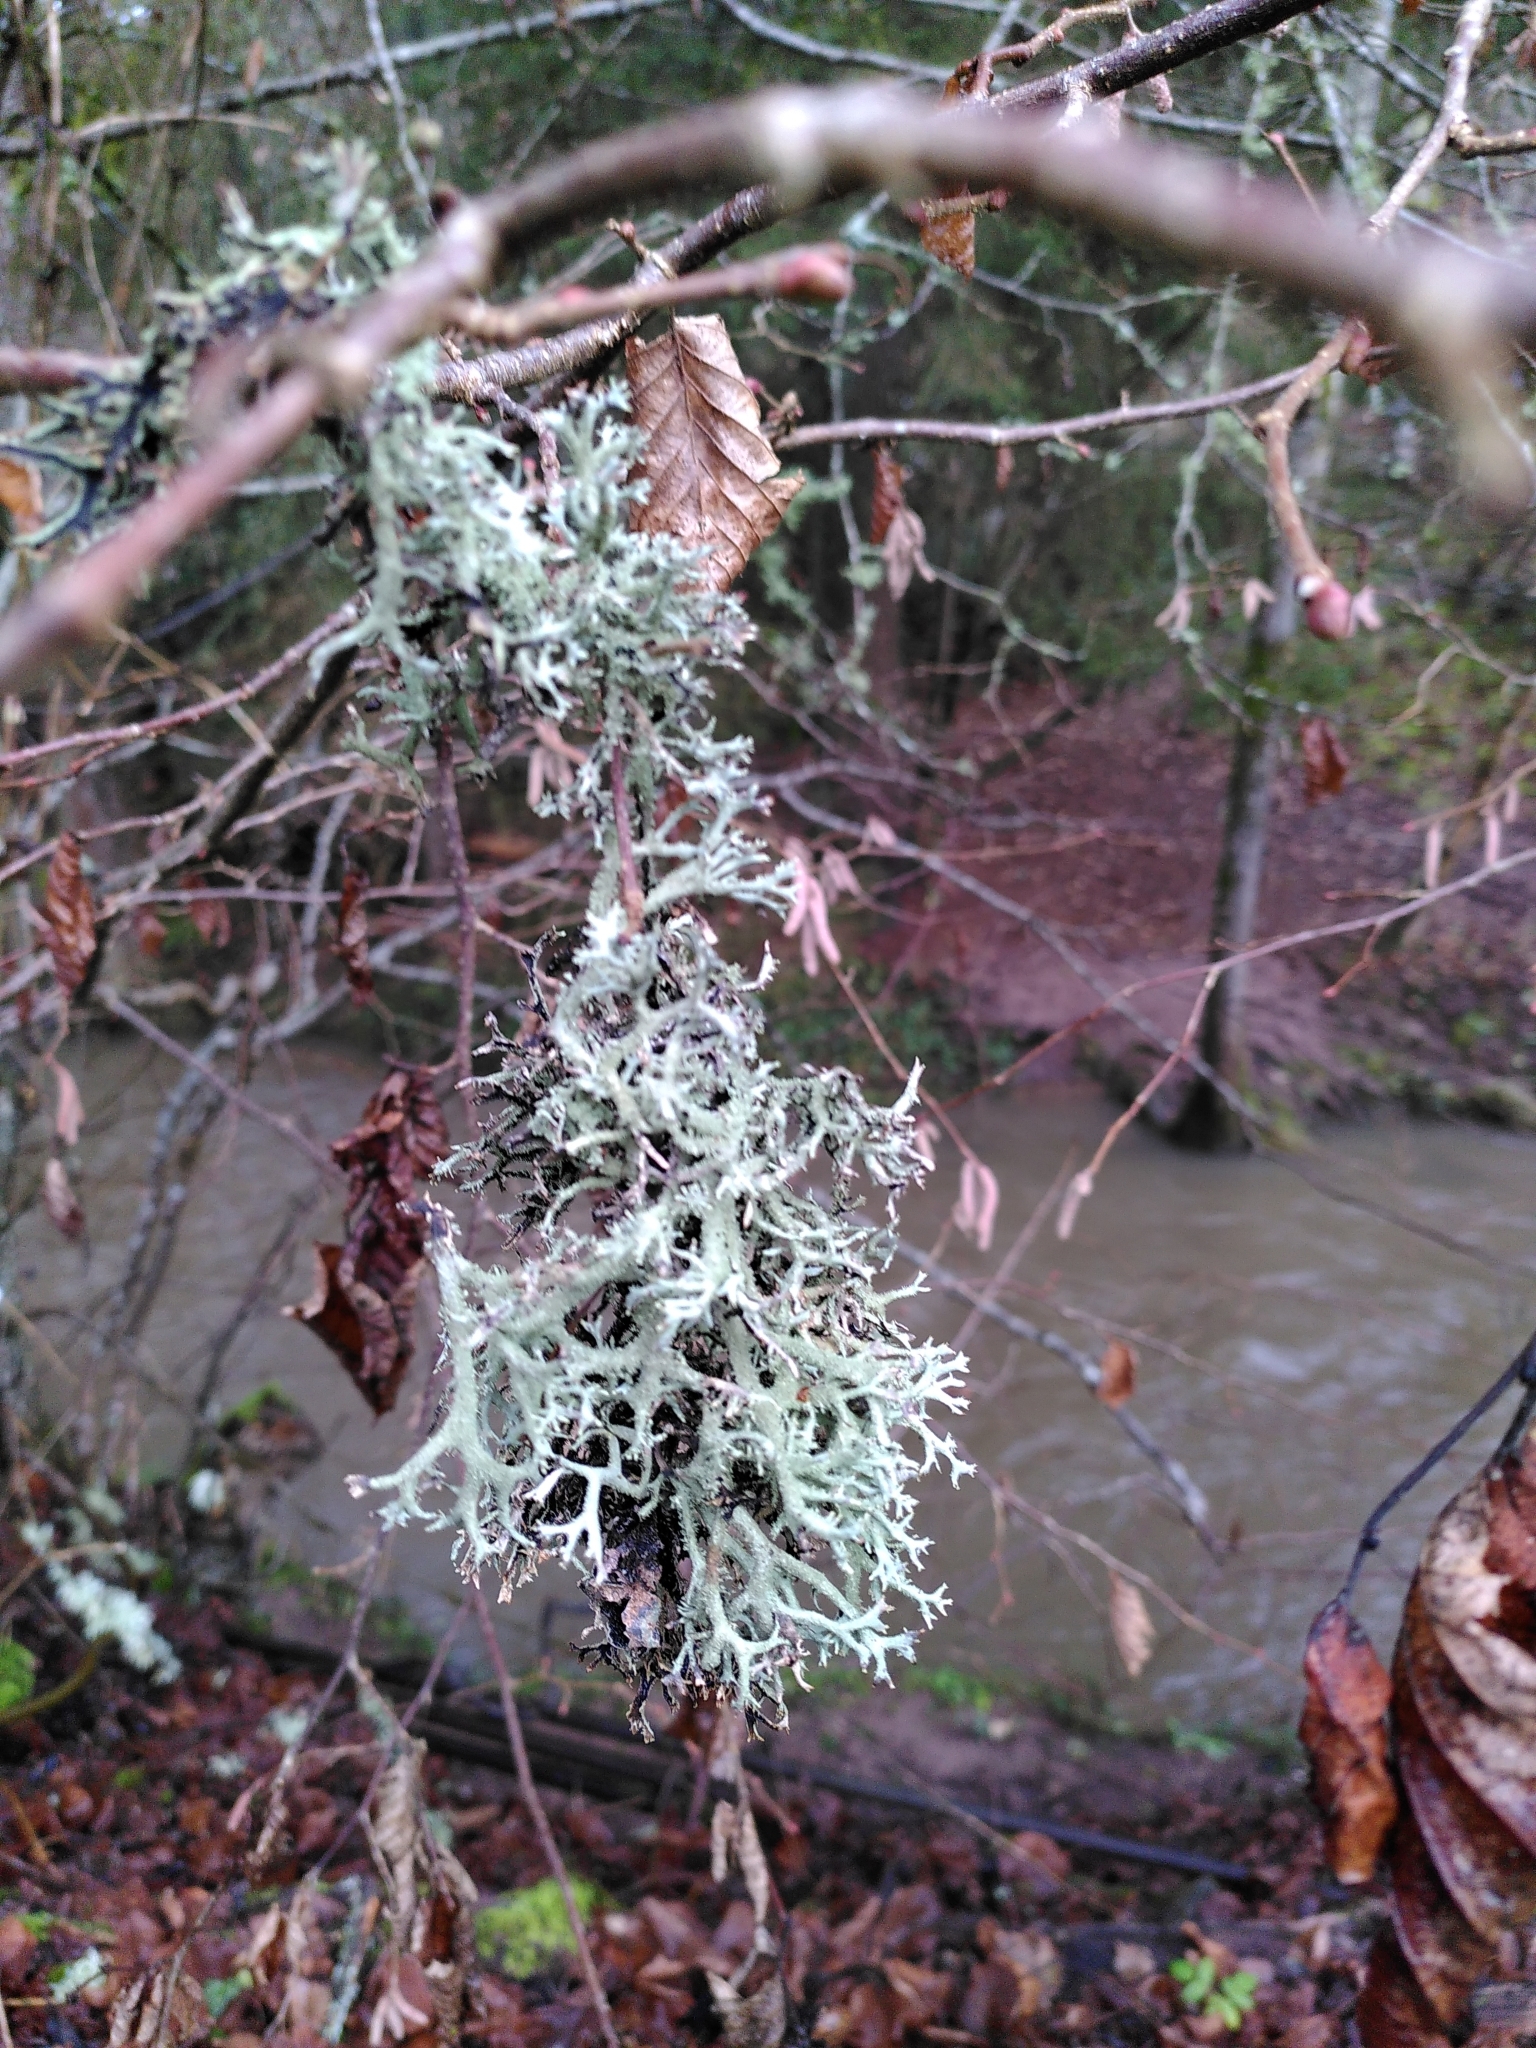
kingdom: Fungi
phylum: Ascomycota
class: Lecanoromycetes
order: Lecanorales
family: Parmeliaceae
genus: Pseudevernia
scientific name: Pseudevernia furfuracea
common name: Tree moss
